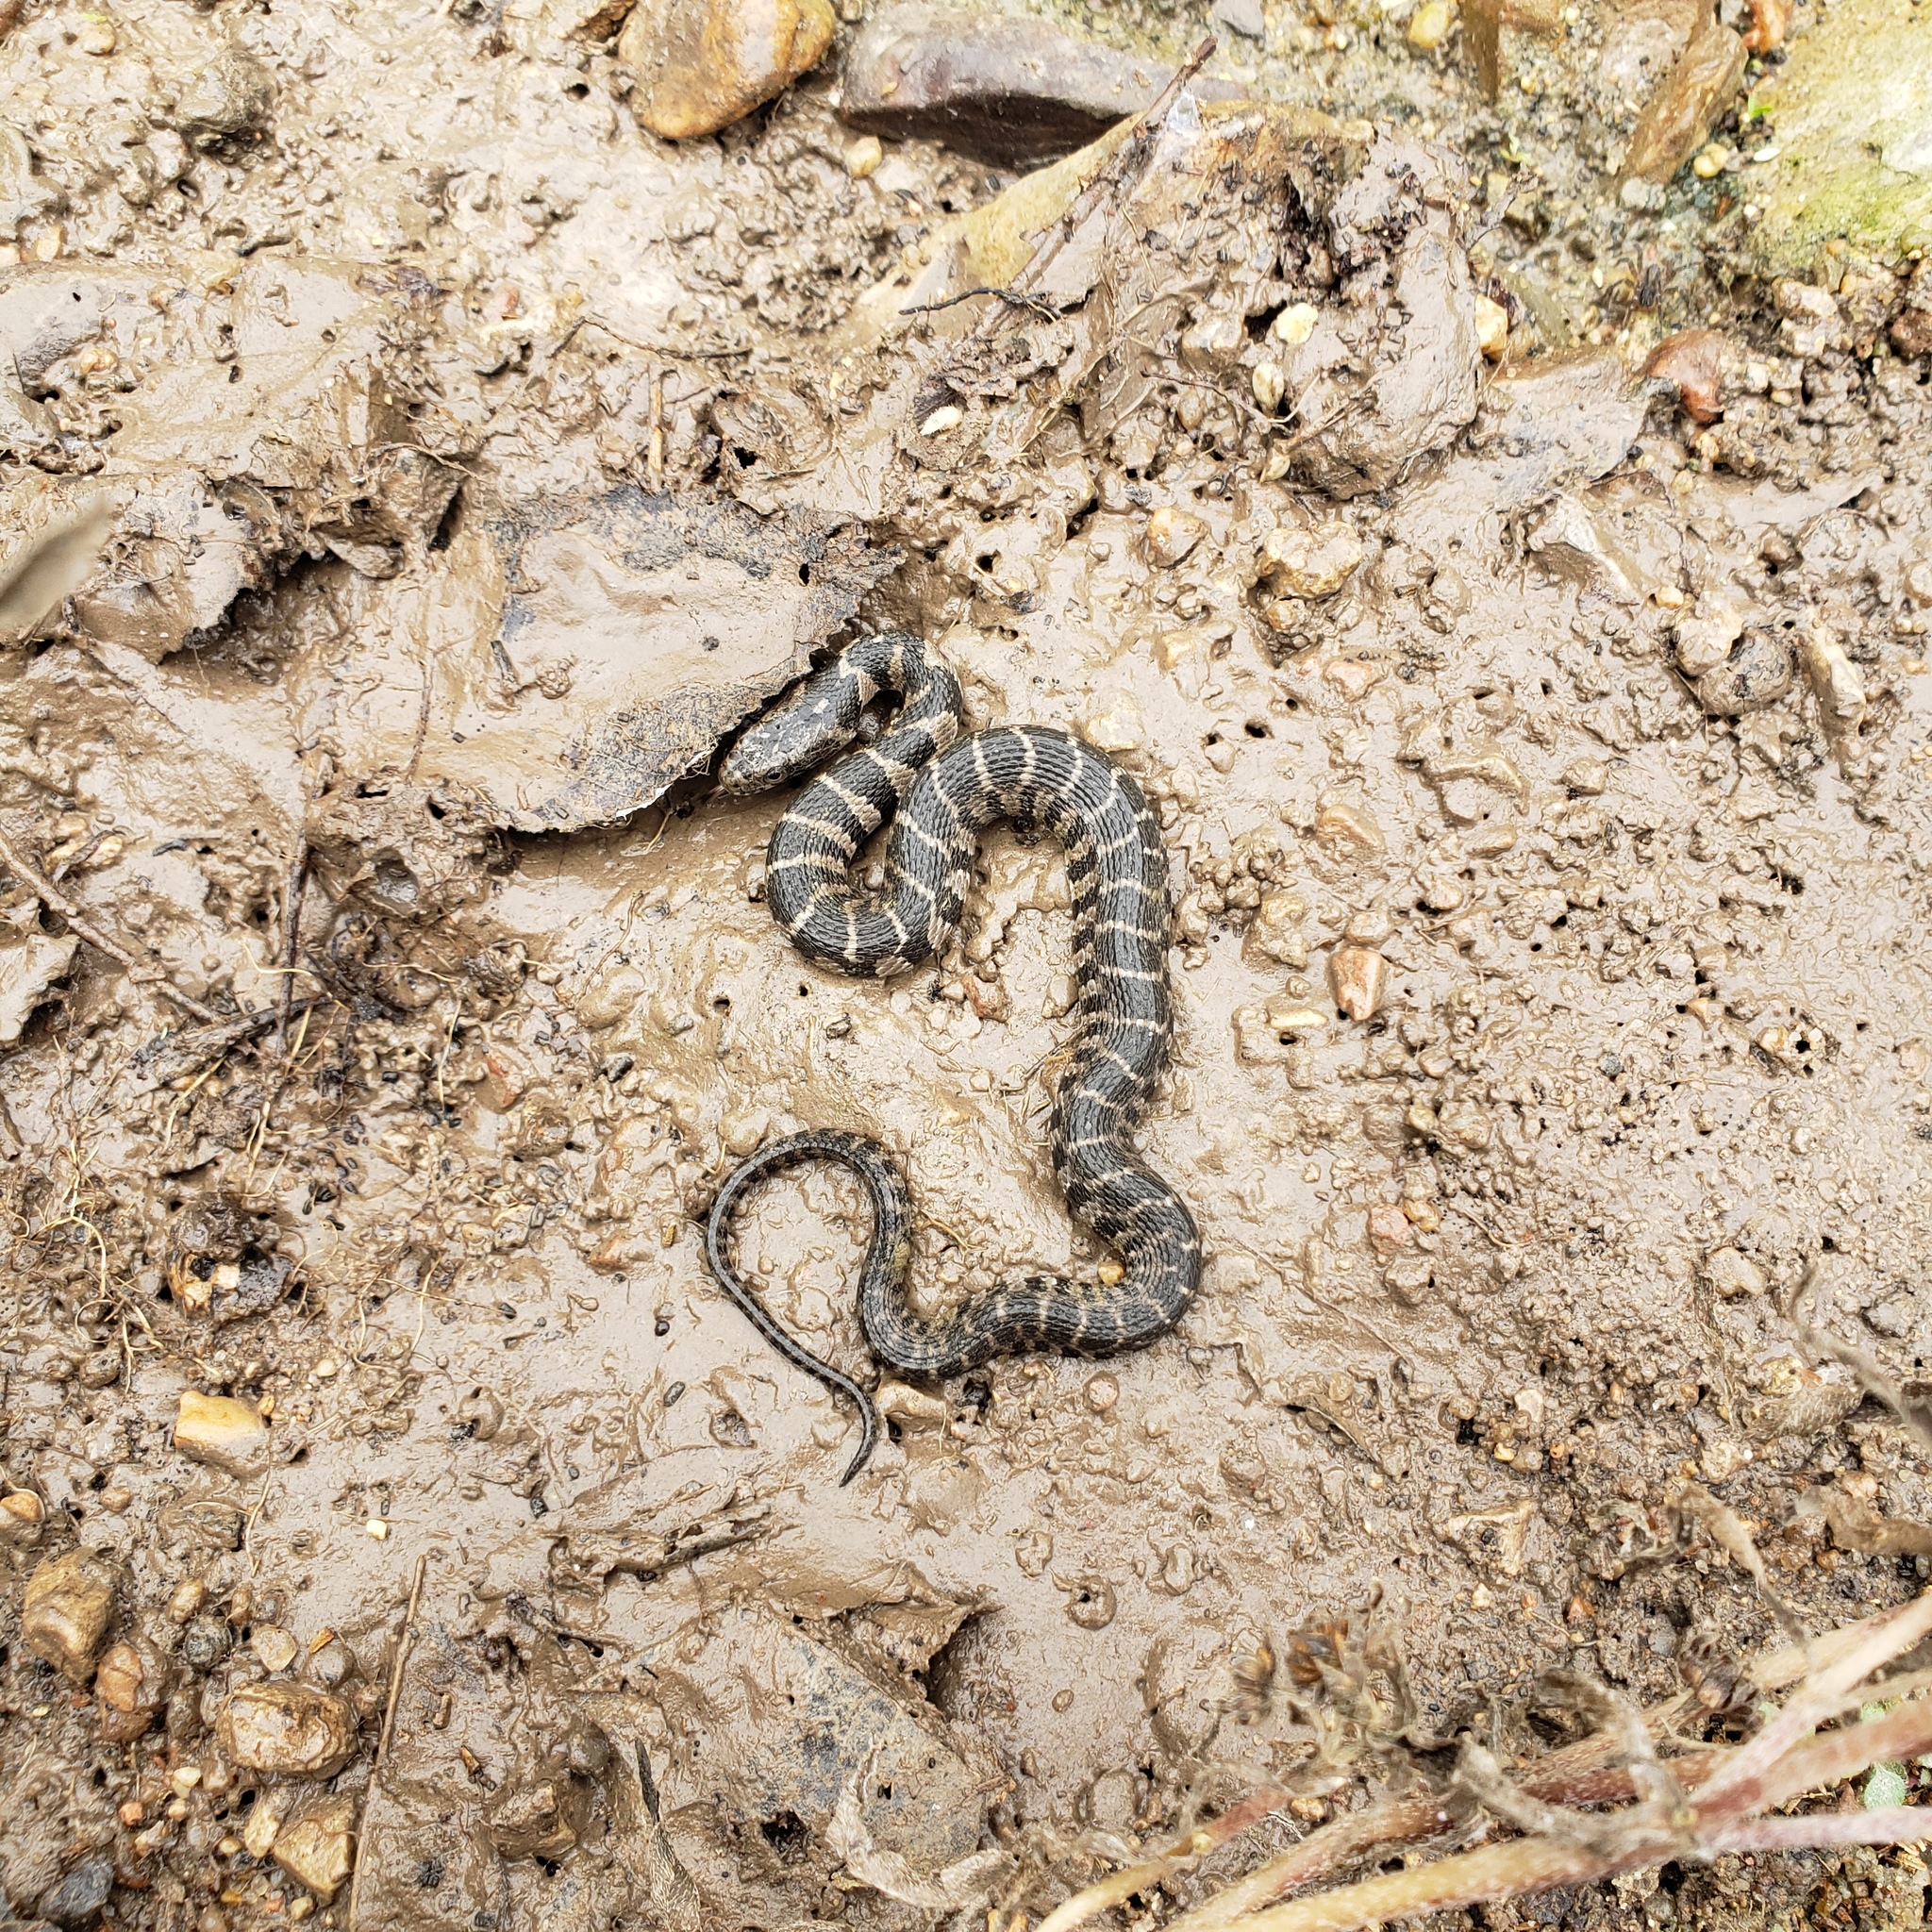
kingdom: Animalia
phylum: Chordata
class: Squamata
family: Colubridae
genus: Nerodia
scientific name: Nerodia sipedon
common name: Northern water snake
